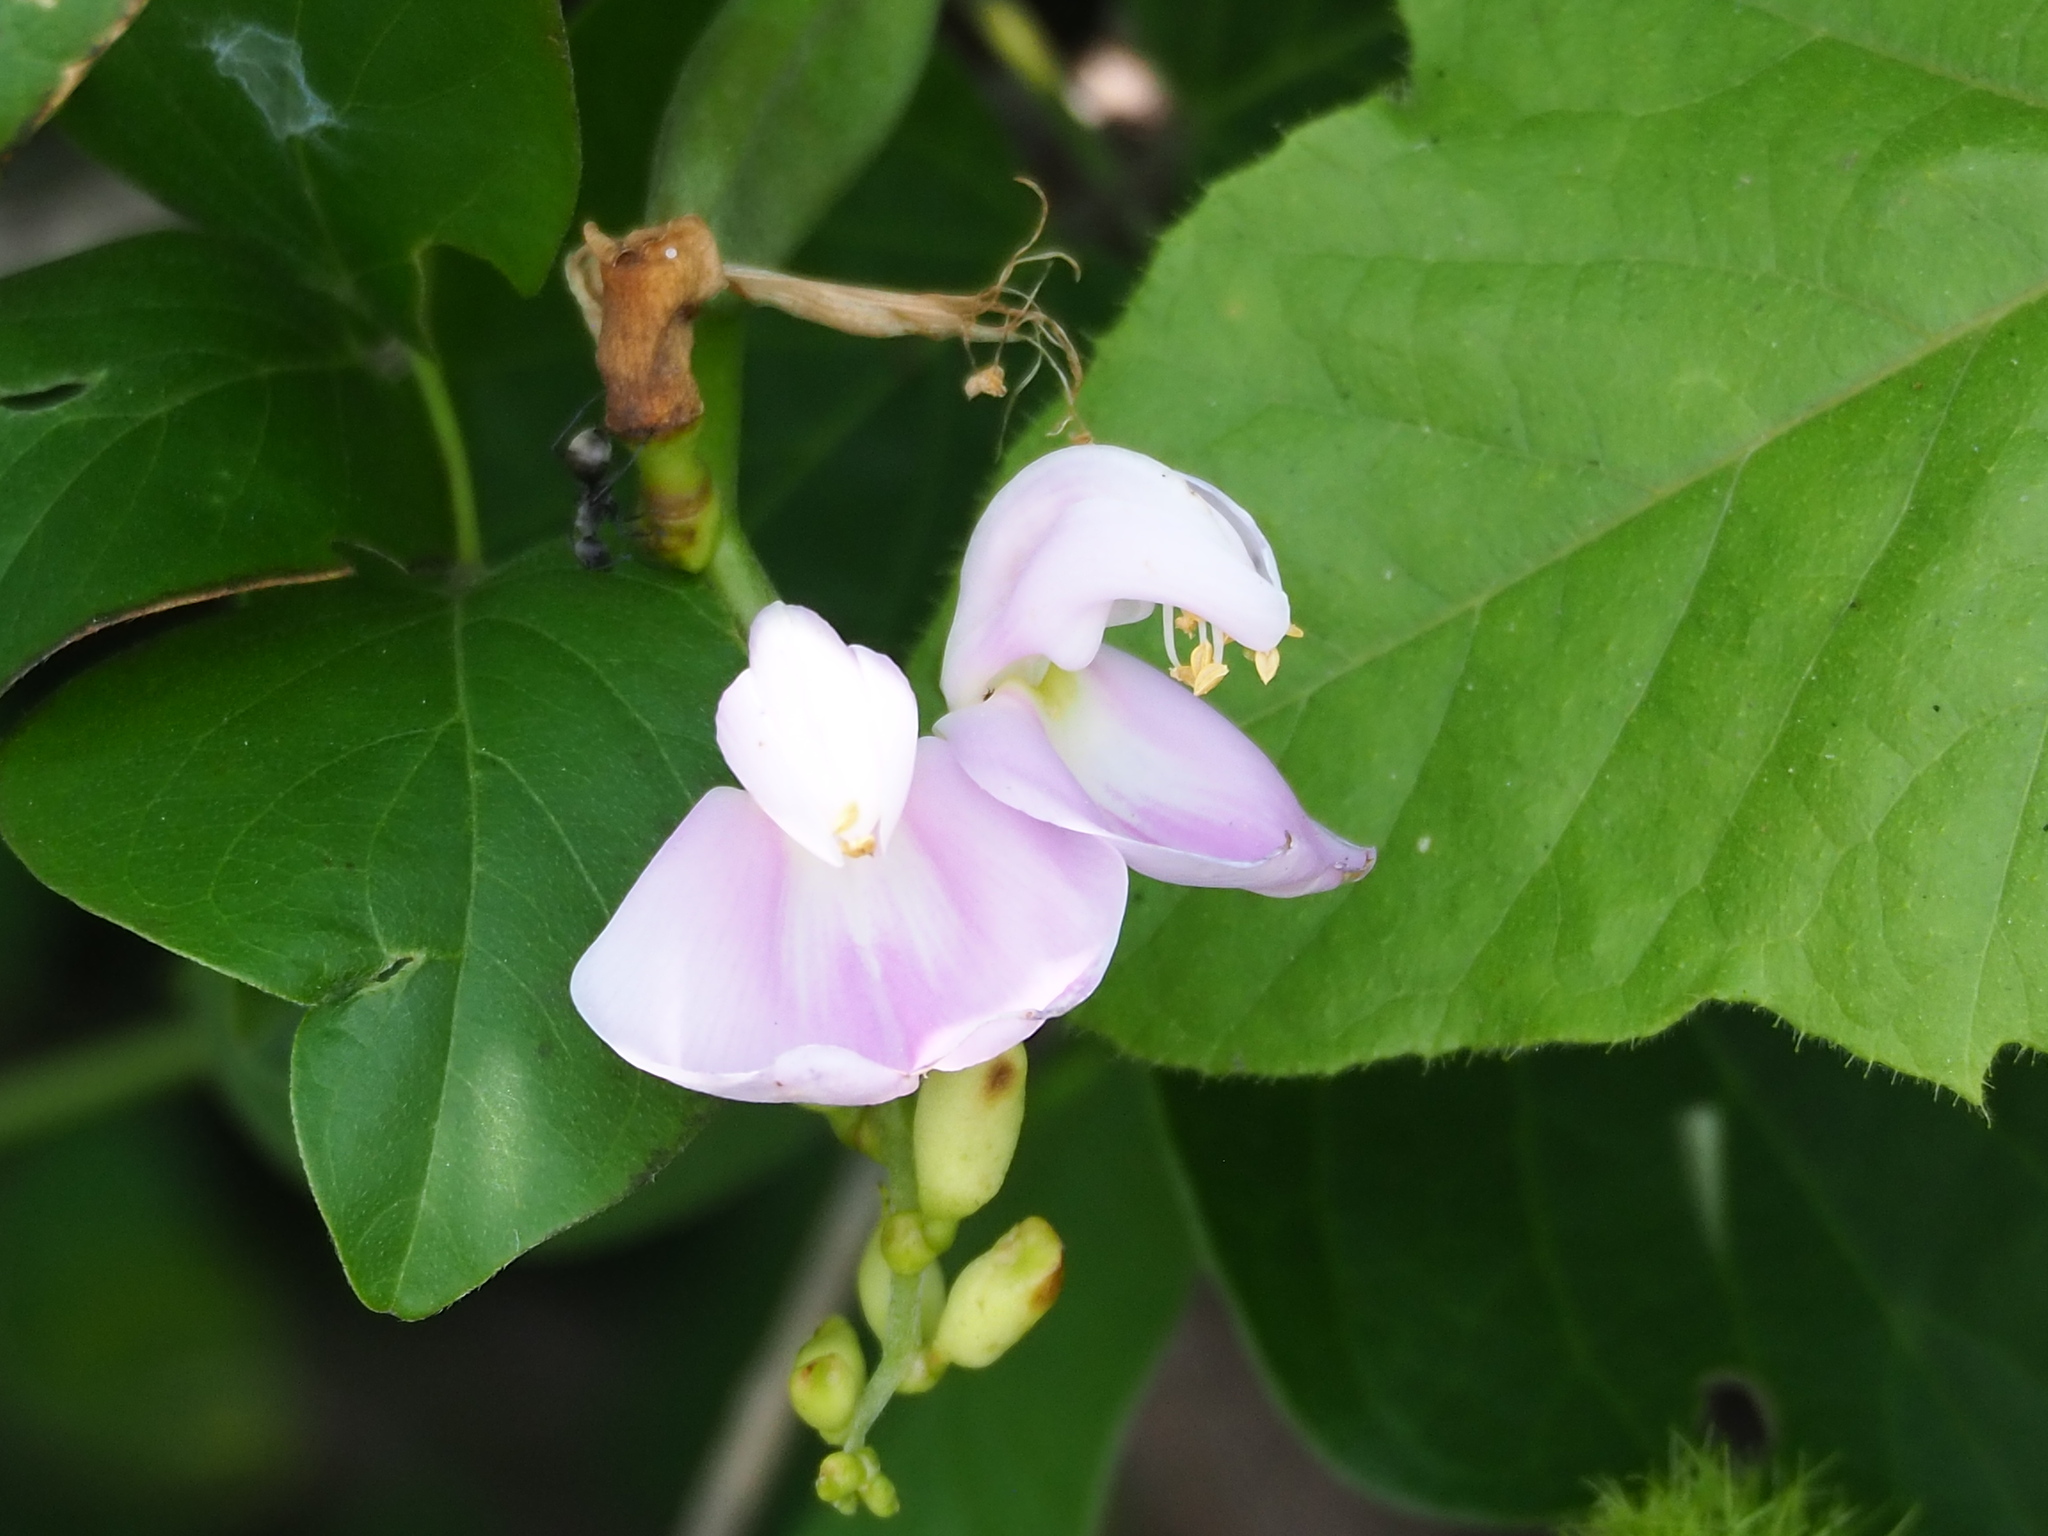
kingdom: Plantae
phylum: Tracheophyta
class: Magnoliopsida
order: Fabales
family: Fabaceae
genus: Canavalia
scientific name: Canavalia lineata
